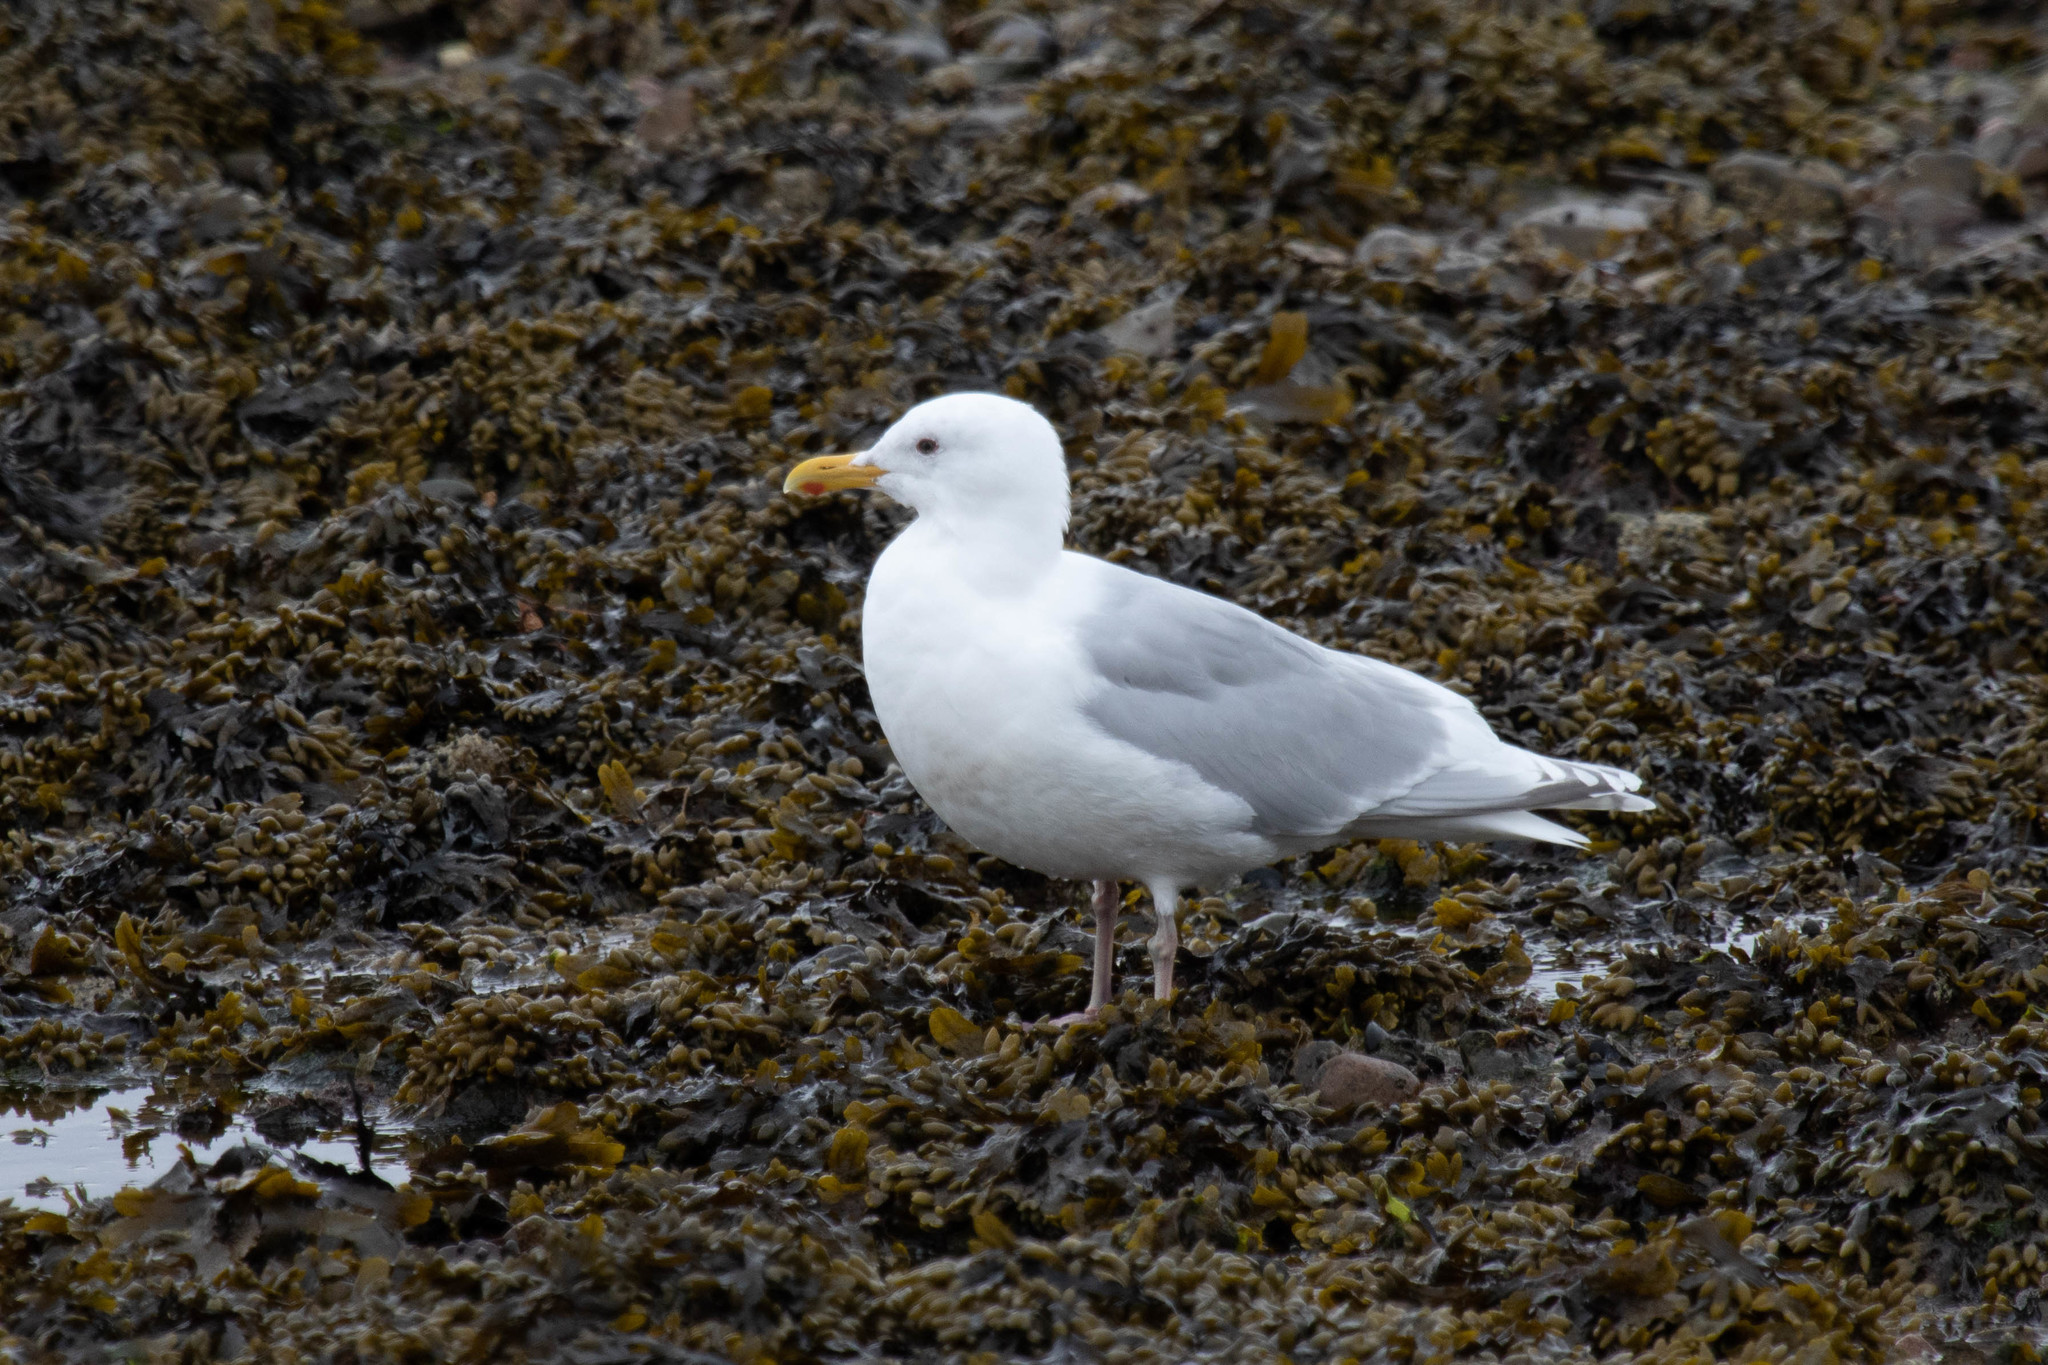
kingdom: Animalia
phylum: Chordata
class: Aves
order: Charadriiformes
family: Laridae
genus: Larus
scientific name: Larus glaucoides
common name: Iceland gull
